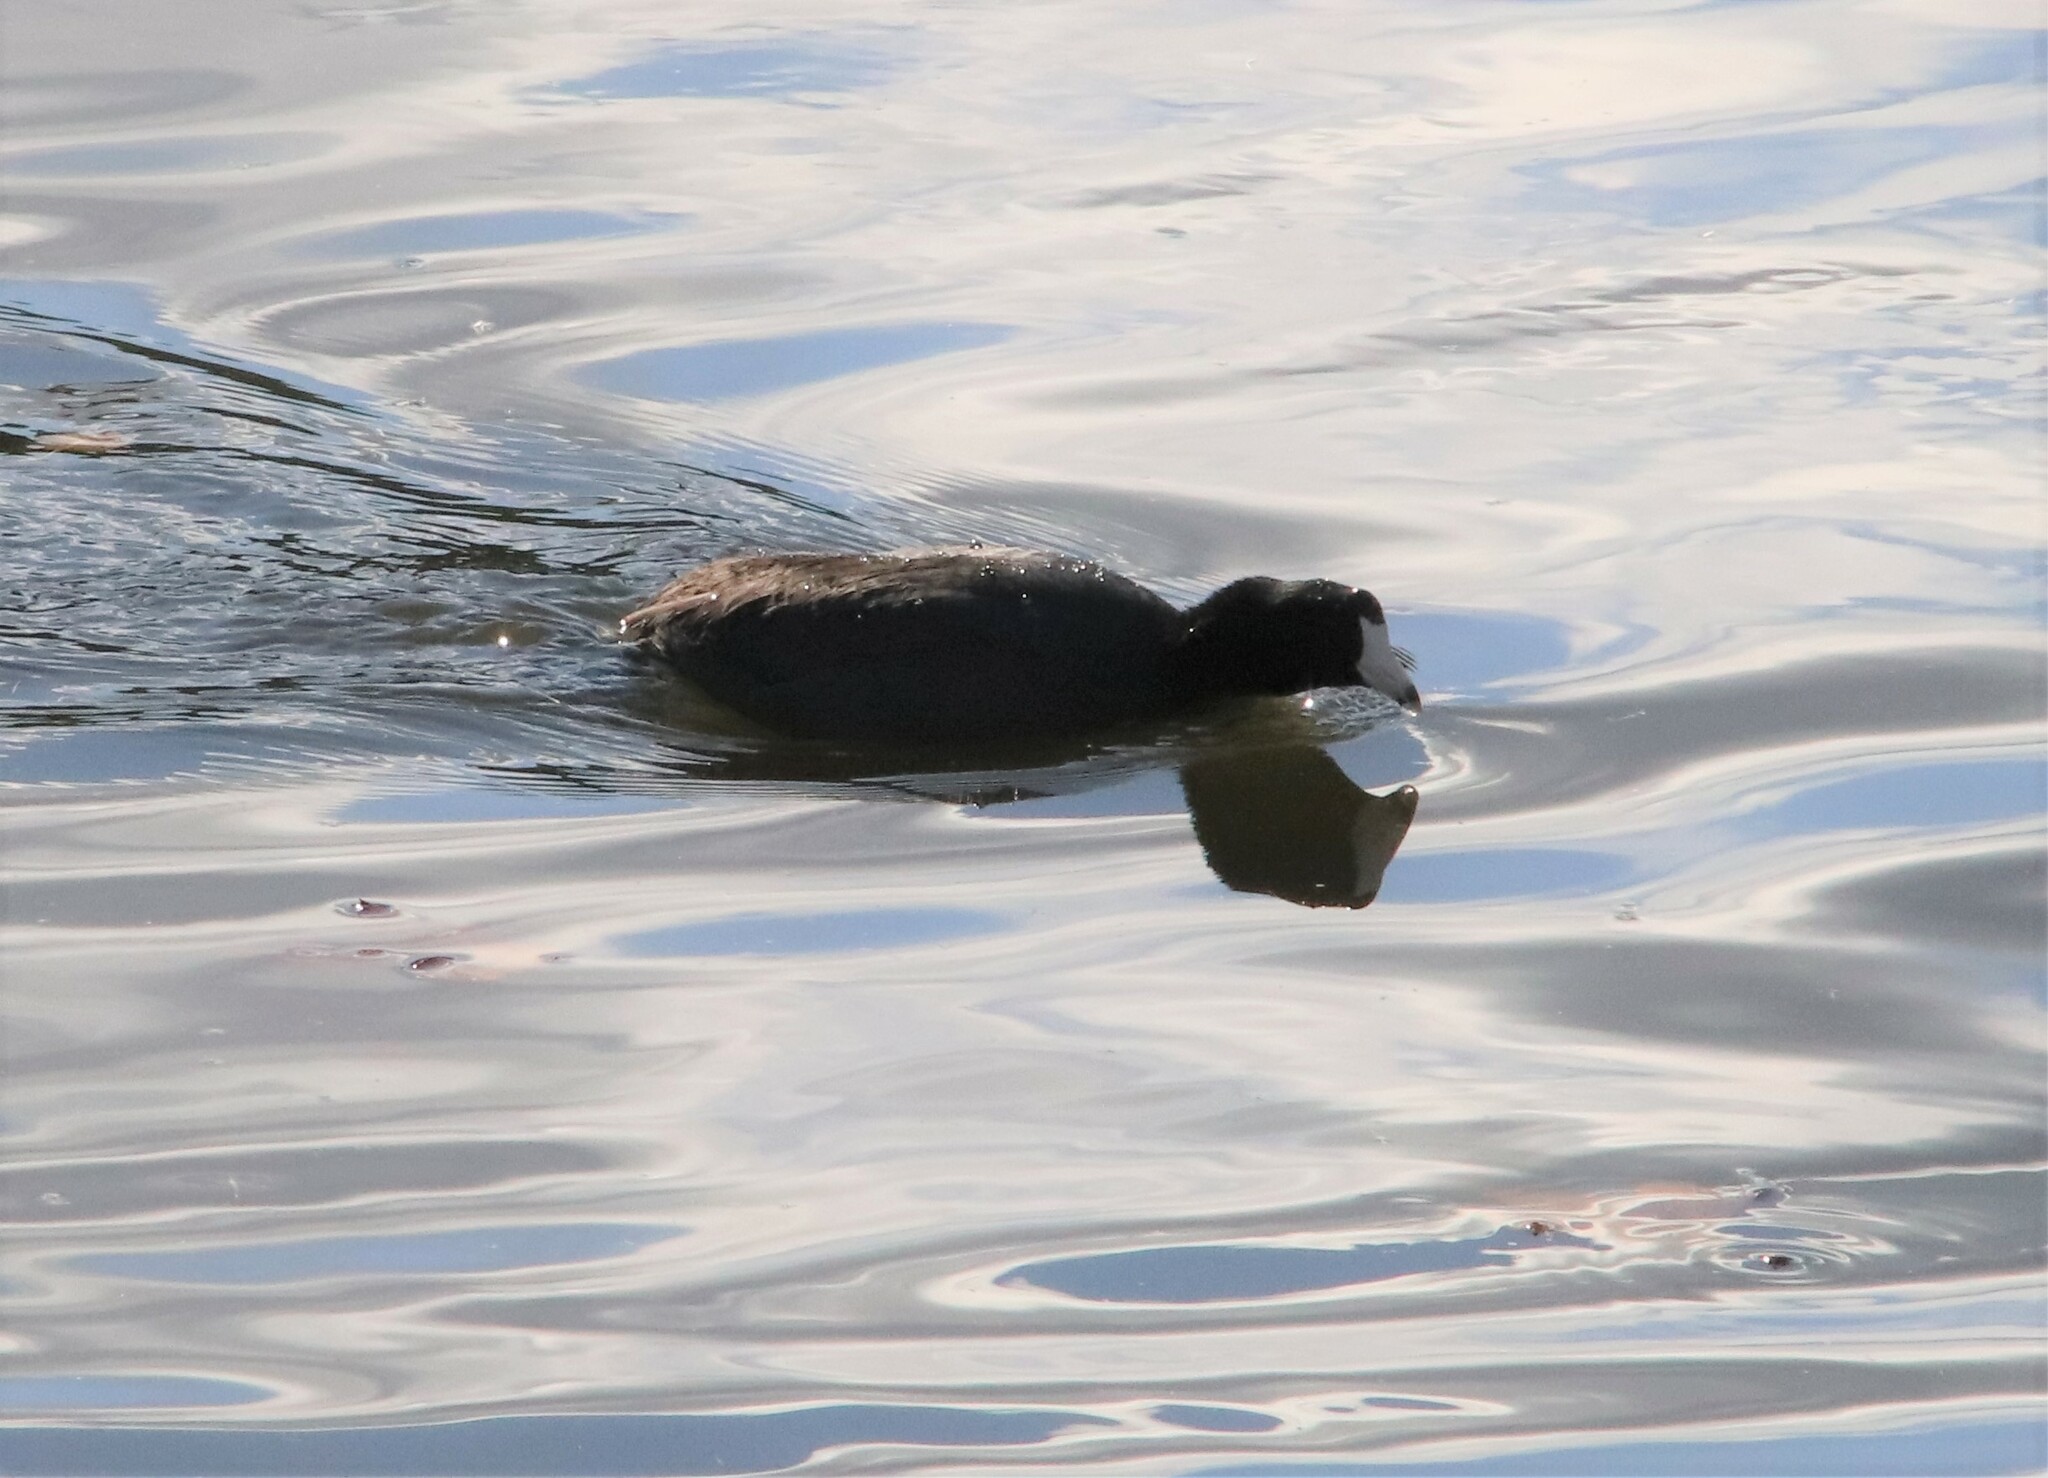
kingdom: Animalia
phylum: Chordata
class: Aves
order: Gruiformes
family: Rallidae
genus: Fulica
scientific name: Fulica americana
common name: American coot
